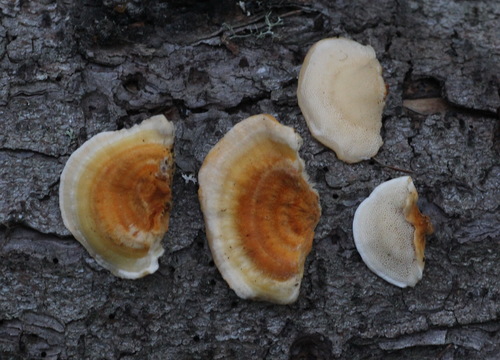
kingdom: Fungi
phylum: Basidiomycota
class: Agaricomycetes
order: Polyporales
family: Pycnoporellaceae
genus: Pycnoporellus
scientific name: Pycnoporellus fulgens
